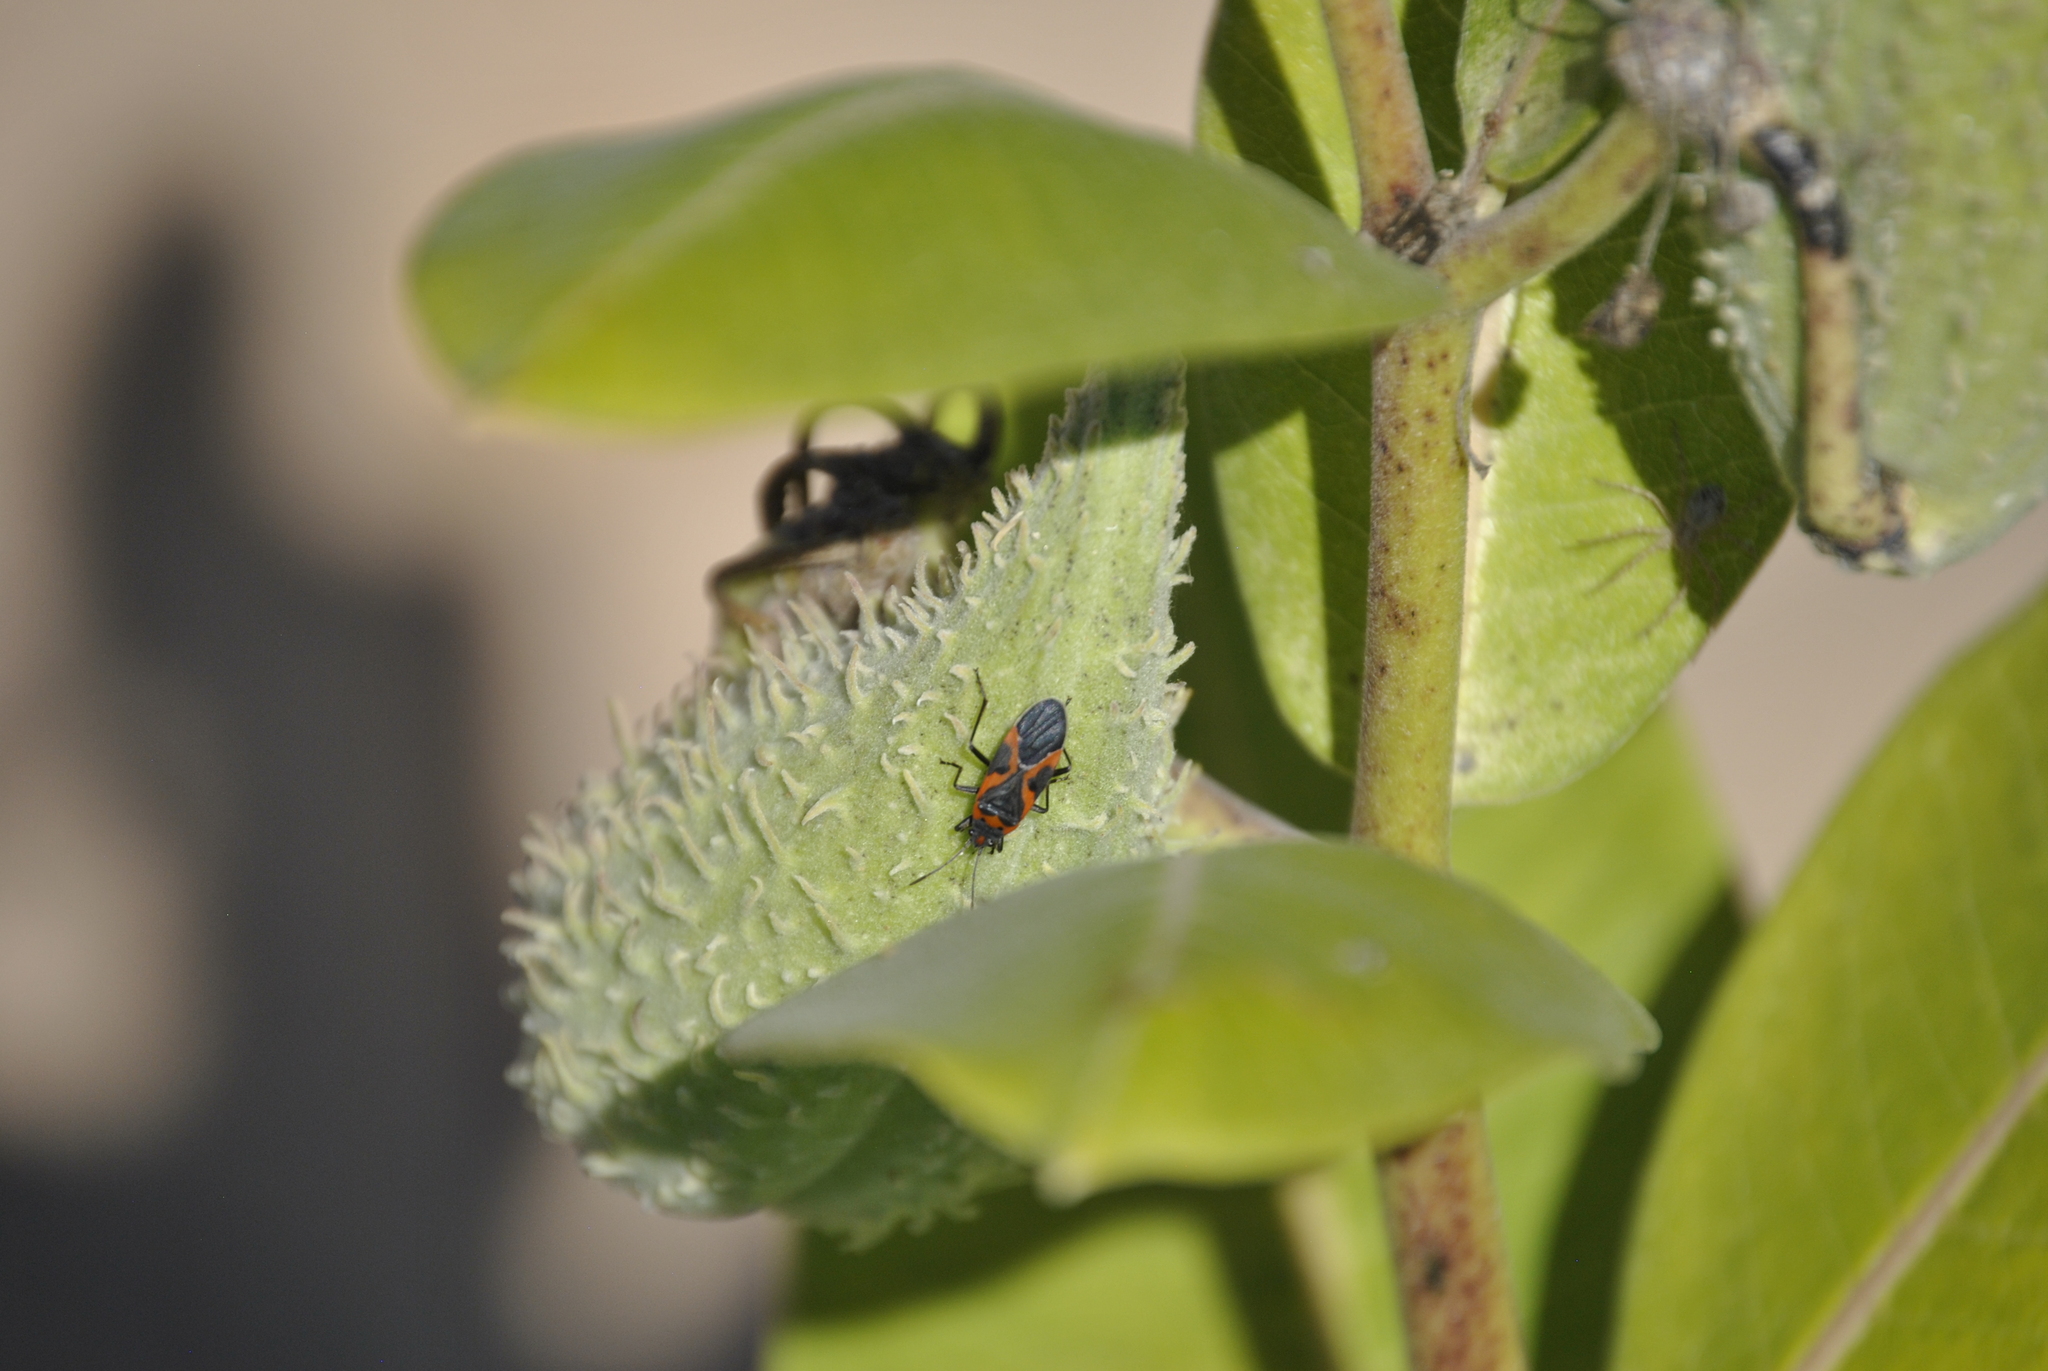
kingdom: Animalia
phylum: Arthropoda
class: Insecta
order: Hemiptera
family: Lygaeidae
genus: Lygaeus
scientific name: Lygaeus kalmii
